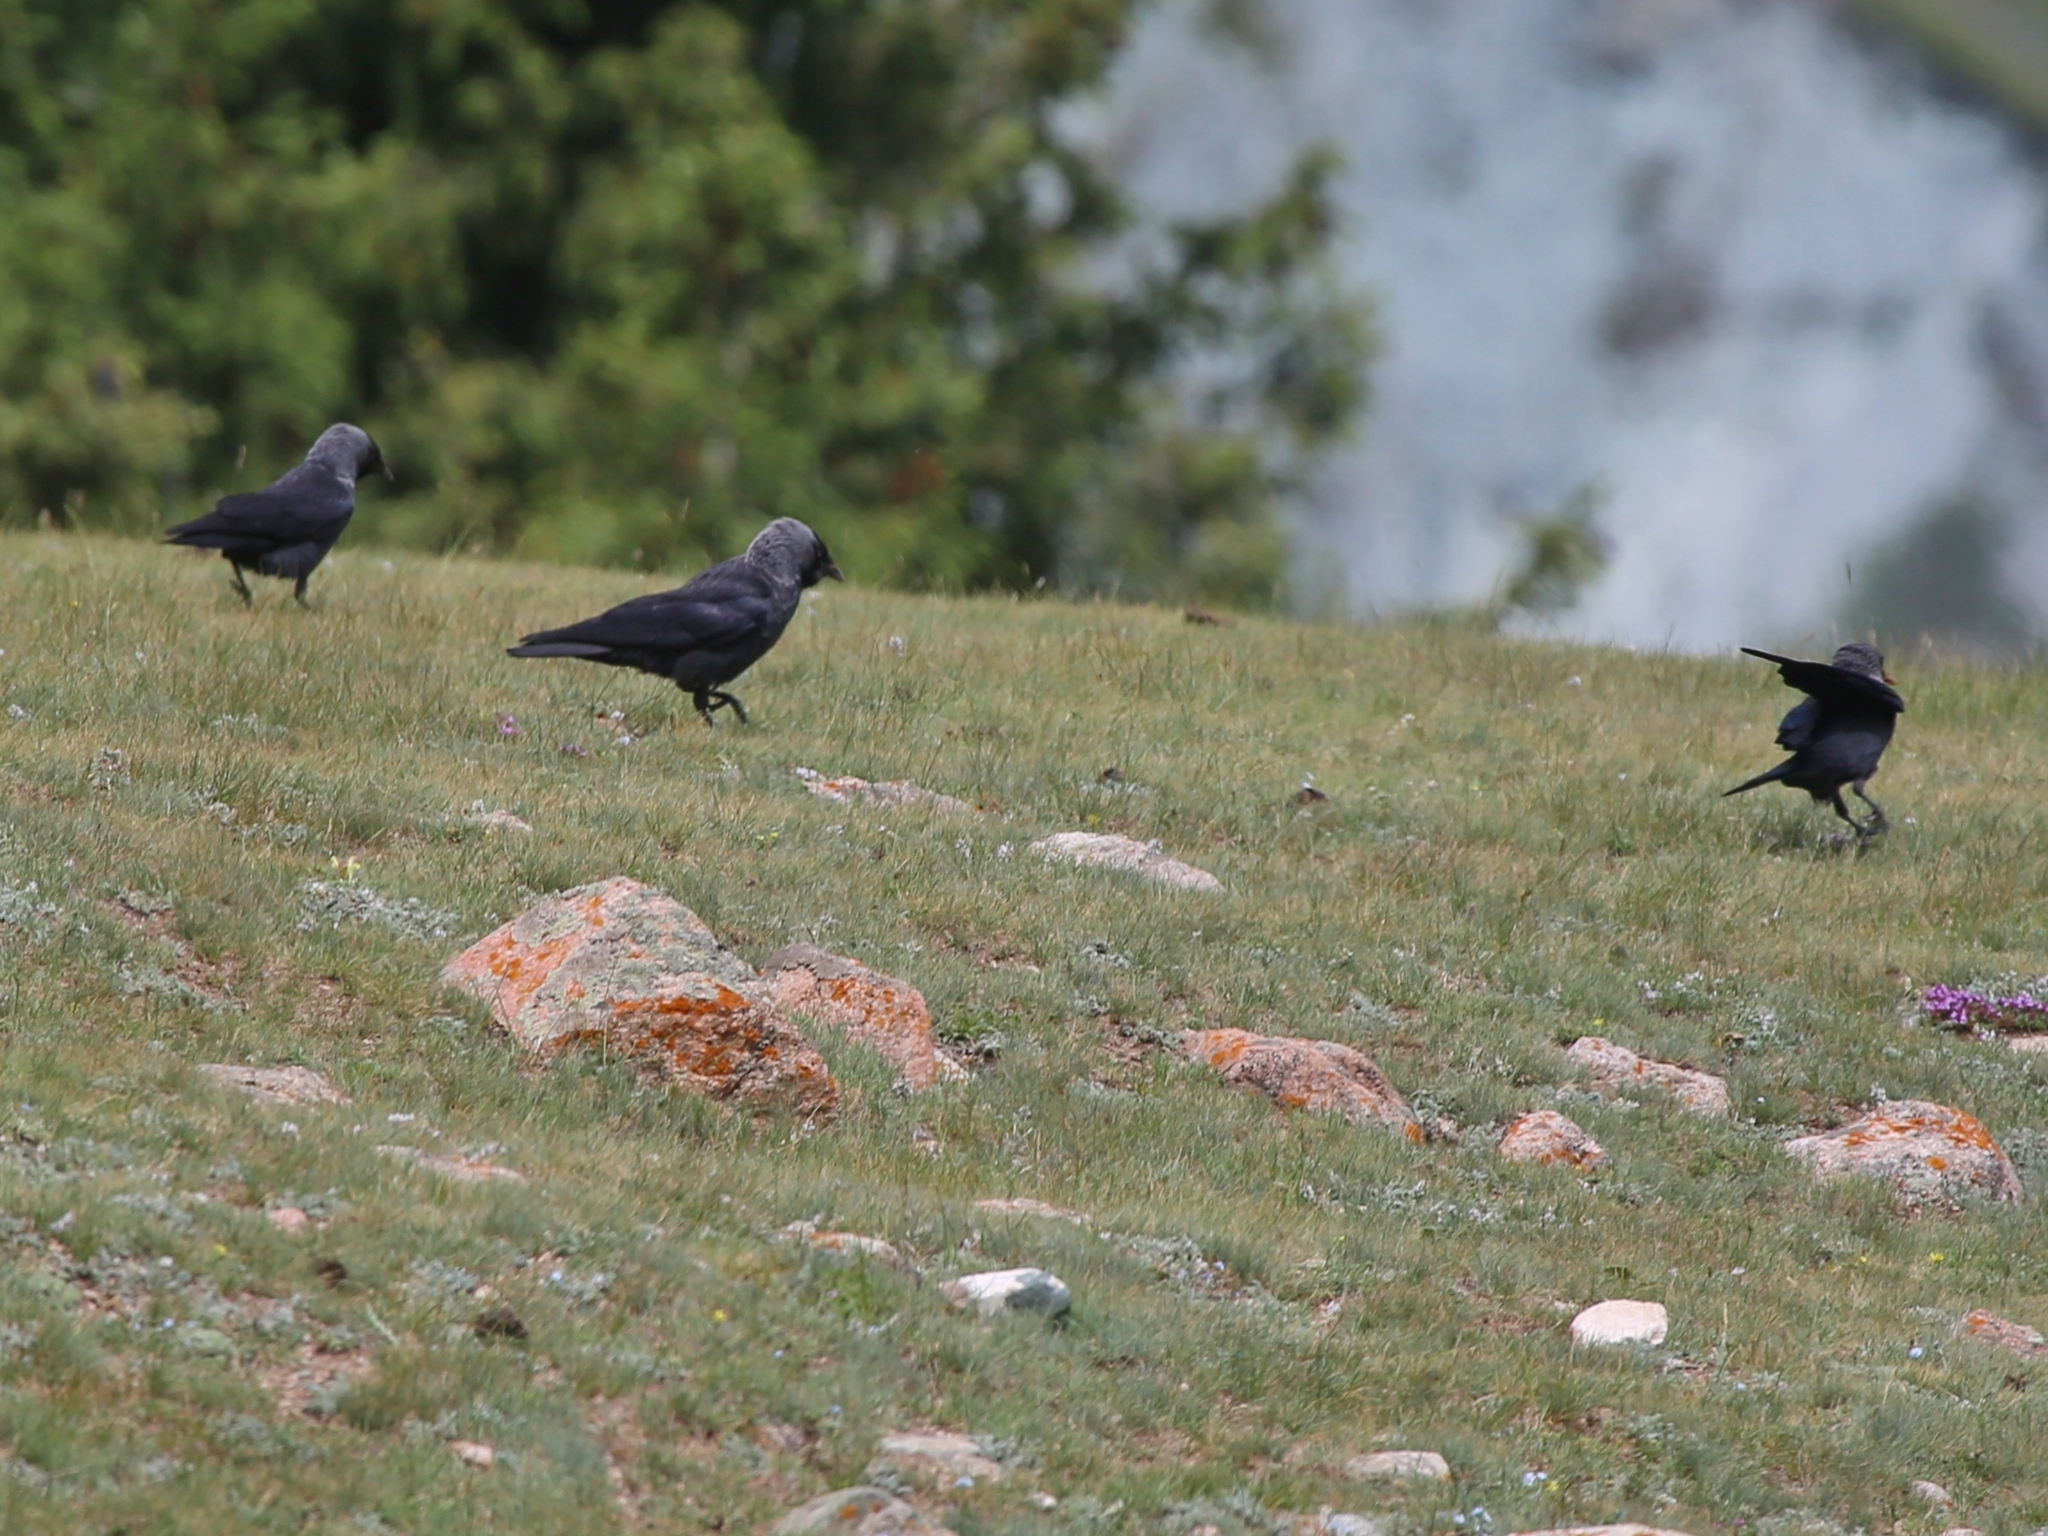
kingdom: Animalia
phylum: Chordata
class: Aves
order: Passeriformes
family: Corvidae
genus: Coloeus
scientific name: Coloeus monedula
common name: Western jackdaw
